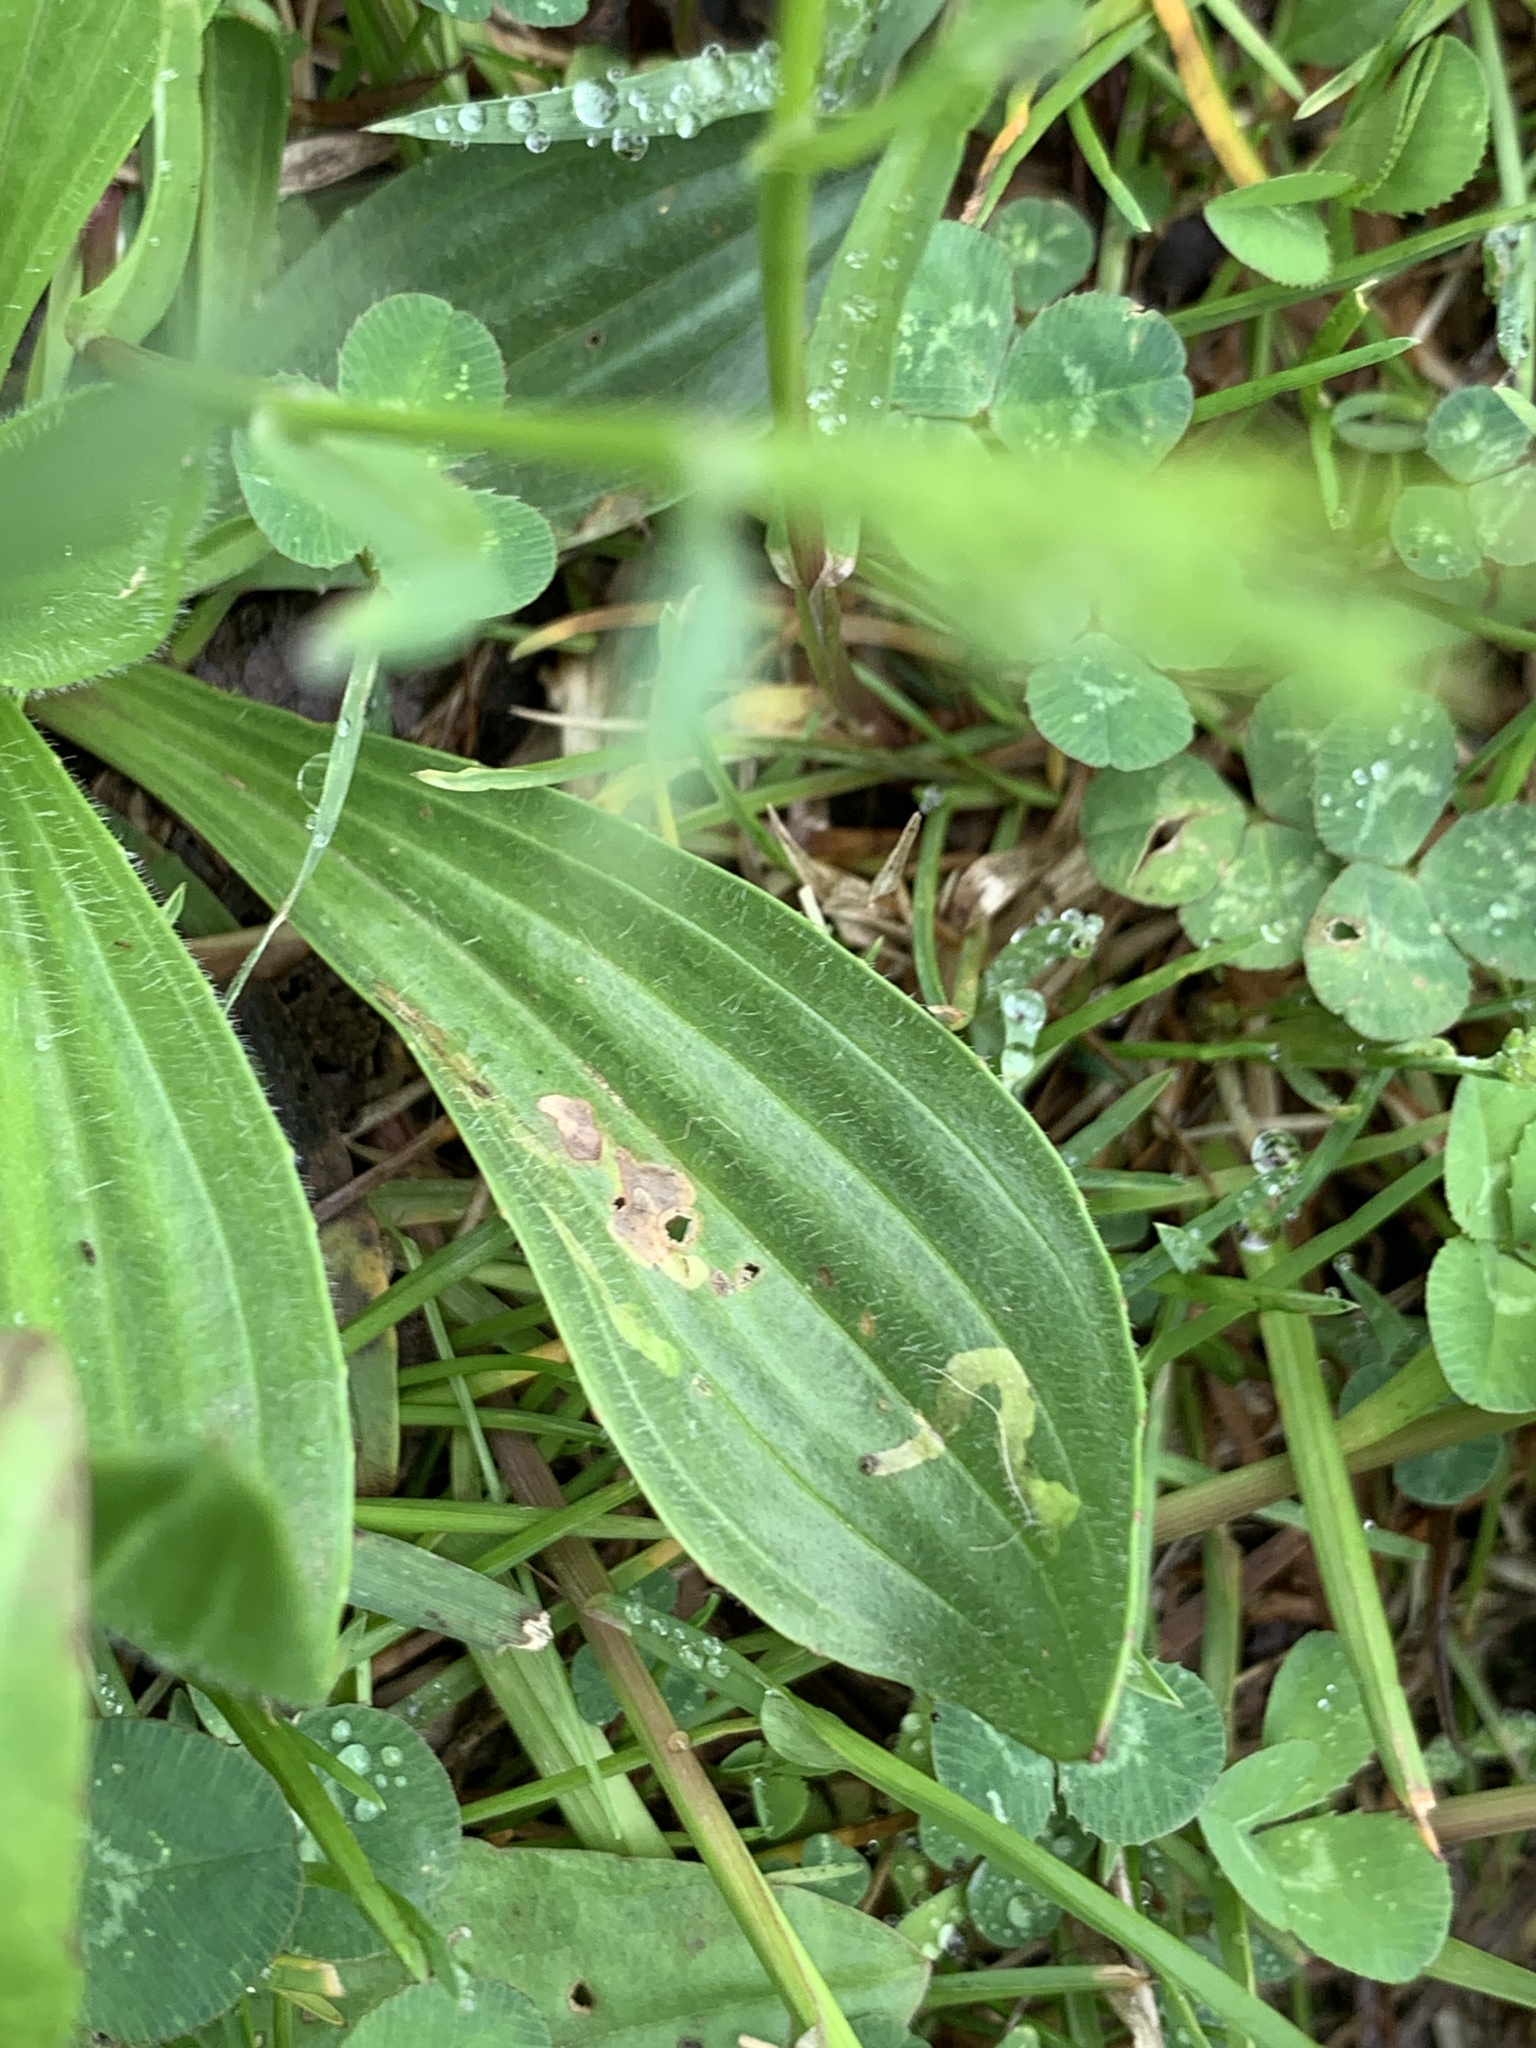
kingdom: Animalia
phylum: Arthropoda
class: Insecta
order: Coleoptera
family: Chrysomelidae
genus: Dibolia
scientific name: Dibolia borealis
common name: Northern plantain flea beetle
